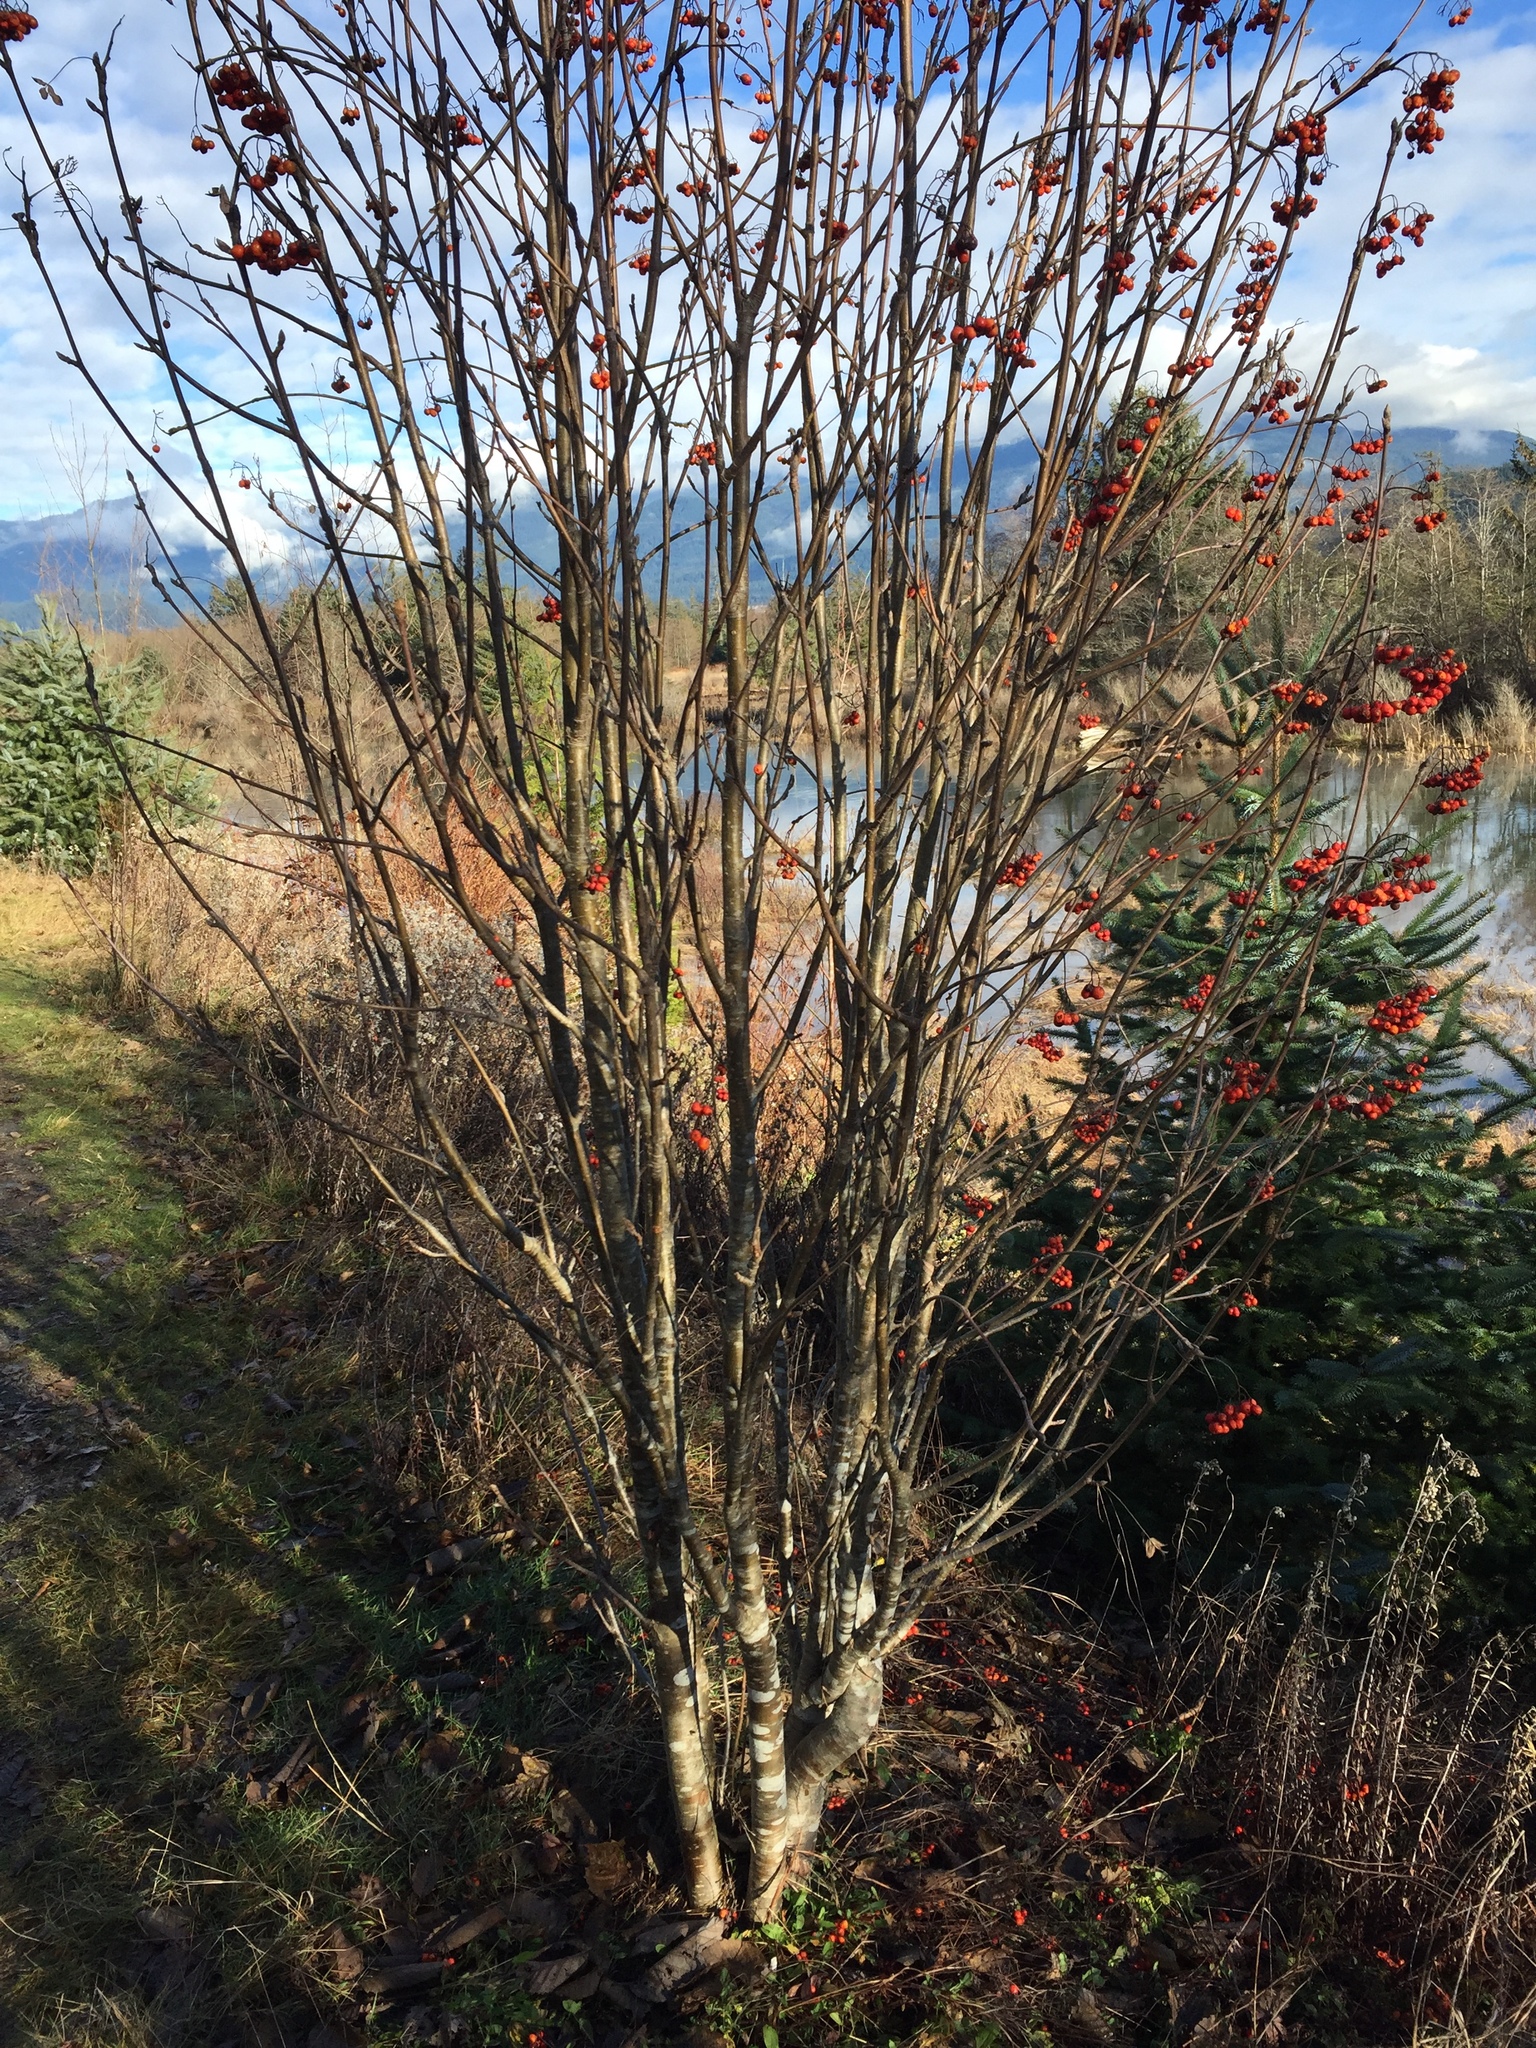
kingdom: Plantae
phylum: Tracheophyta
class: Magnoliopsida
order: Rosales
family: Rosaceae
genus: Sorbus
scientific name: Sorbus aucuparia
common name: Rowan
